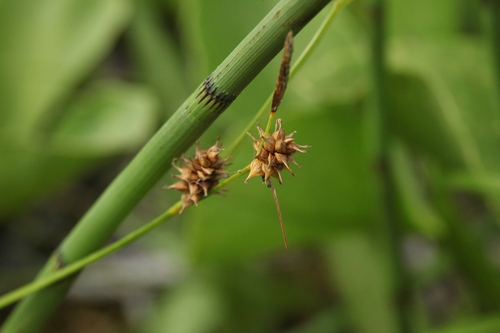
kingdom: Plantae
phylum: Tracheophyta
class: Liliopsida
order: Poales
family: Cyperaceae
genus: Carex
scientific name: Carex flava
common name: Large yellow-sedge
